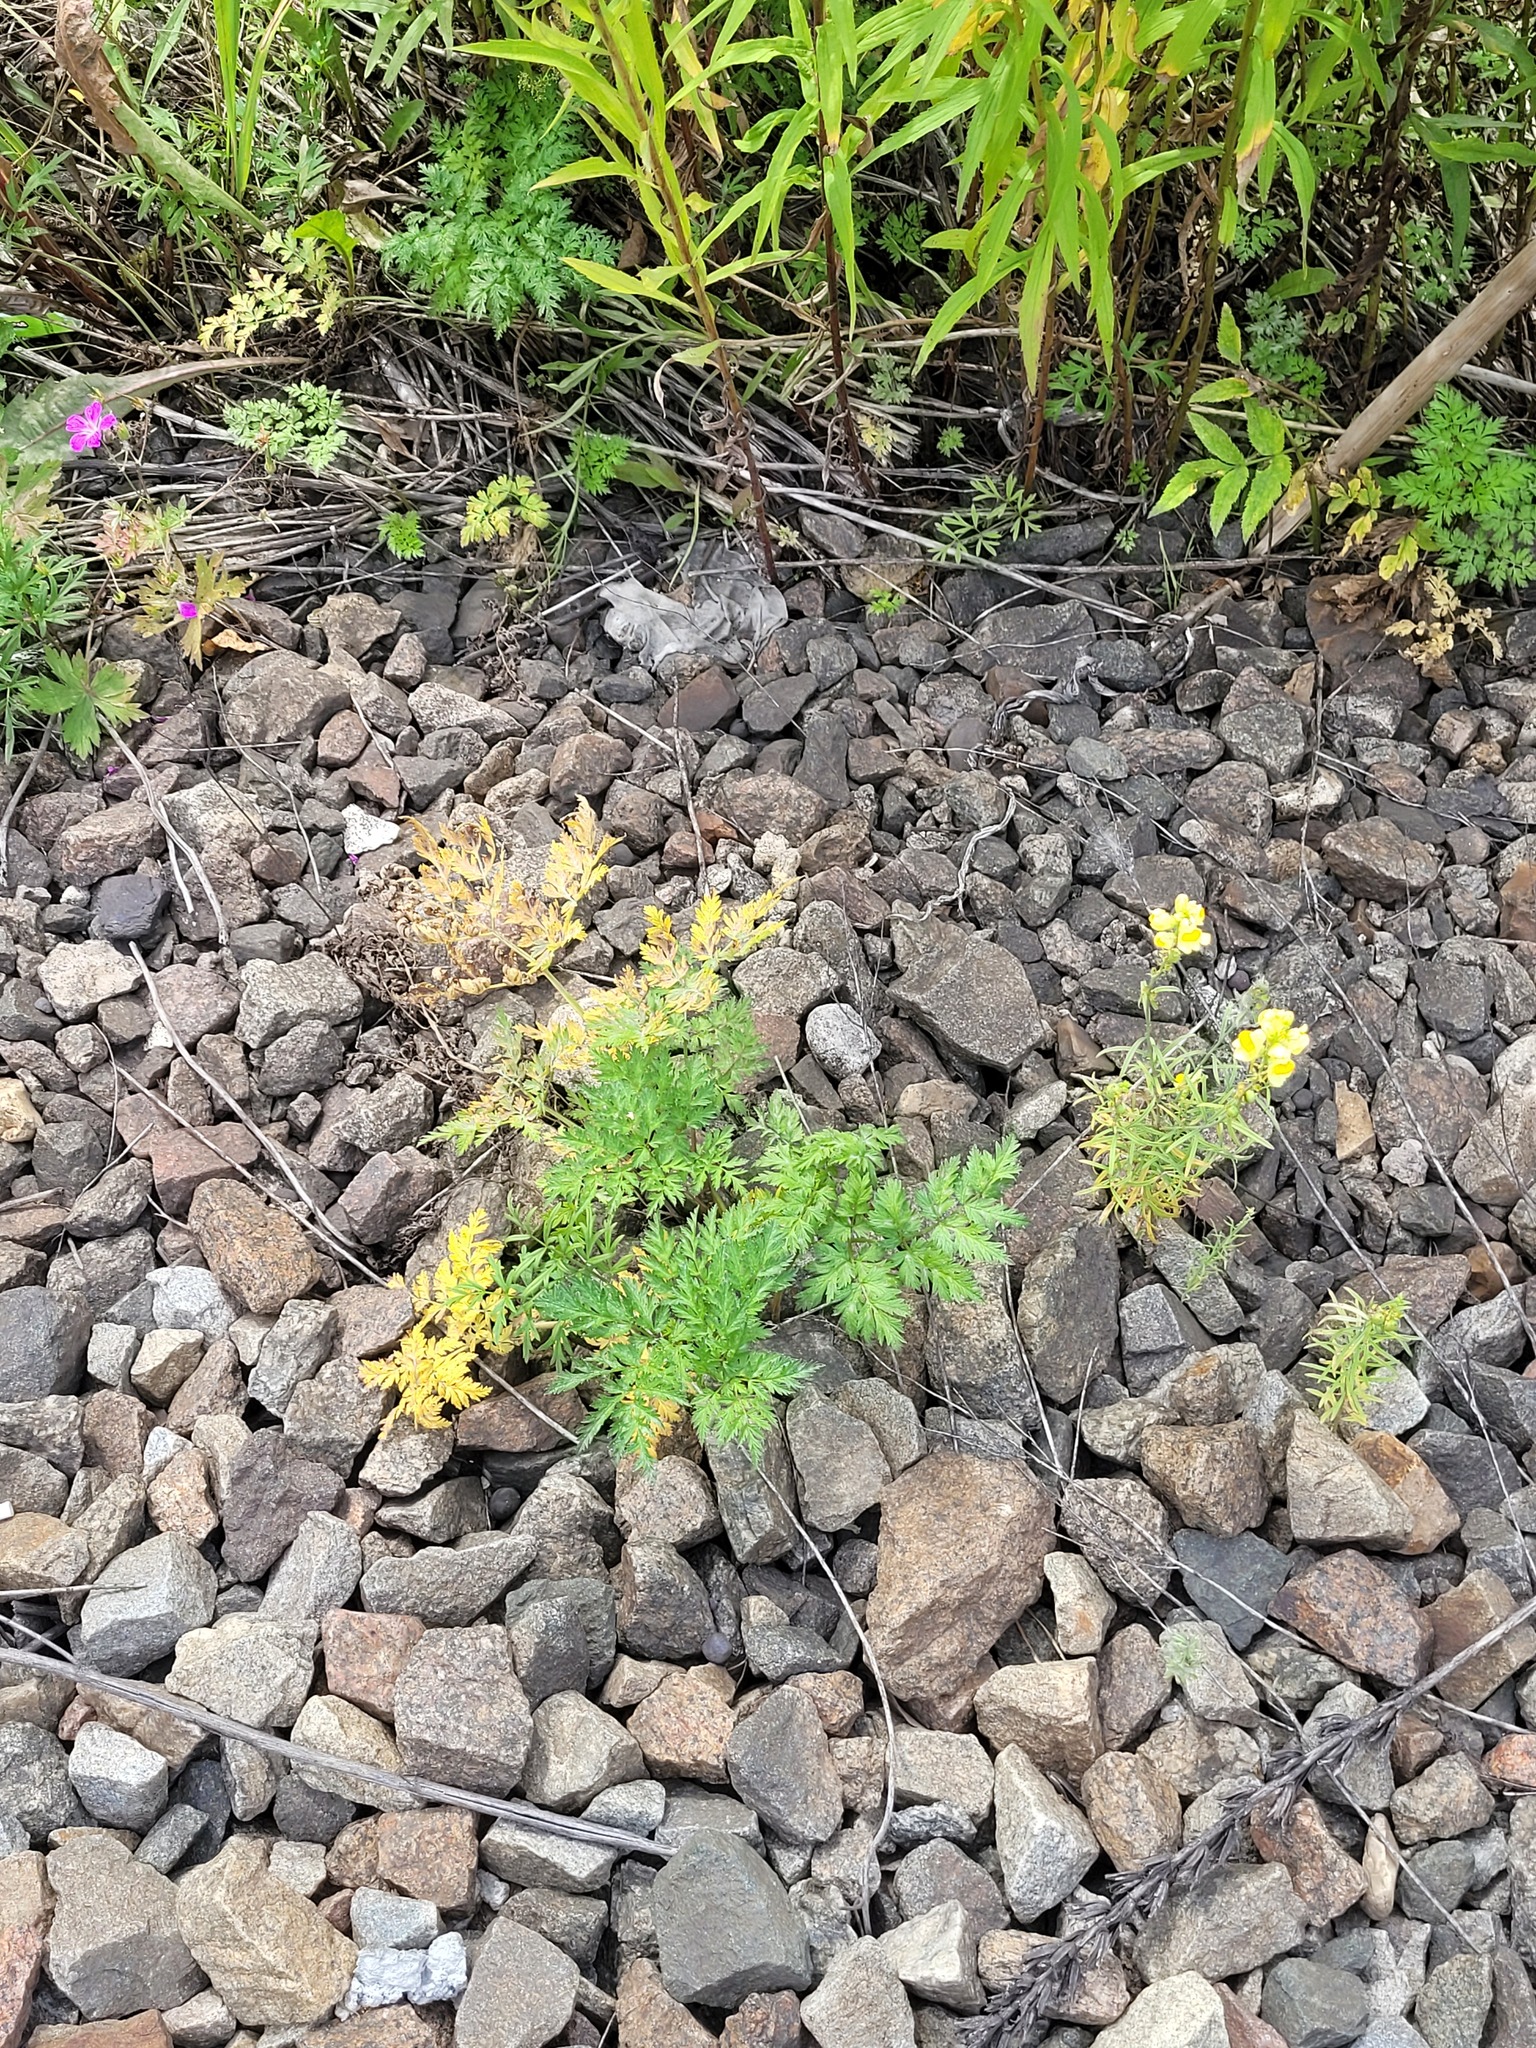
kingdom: Plantae
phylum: Tracheophyta
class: Magnoliopsida
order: Apiales
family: Apiaceae
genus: Anthriscus
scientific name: Anthriscus sylvestris
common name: Cow parsley
